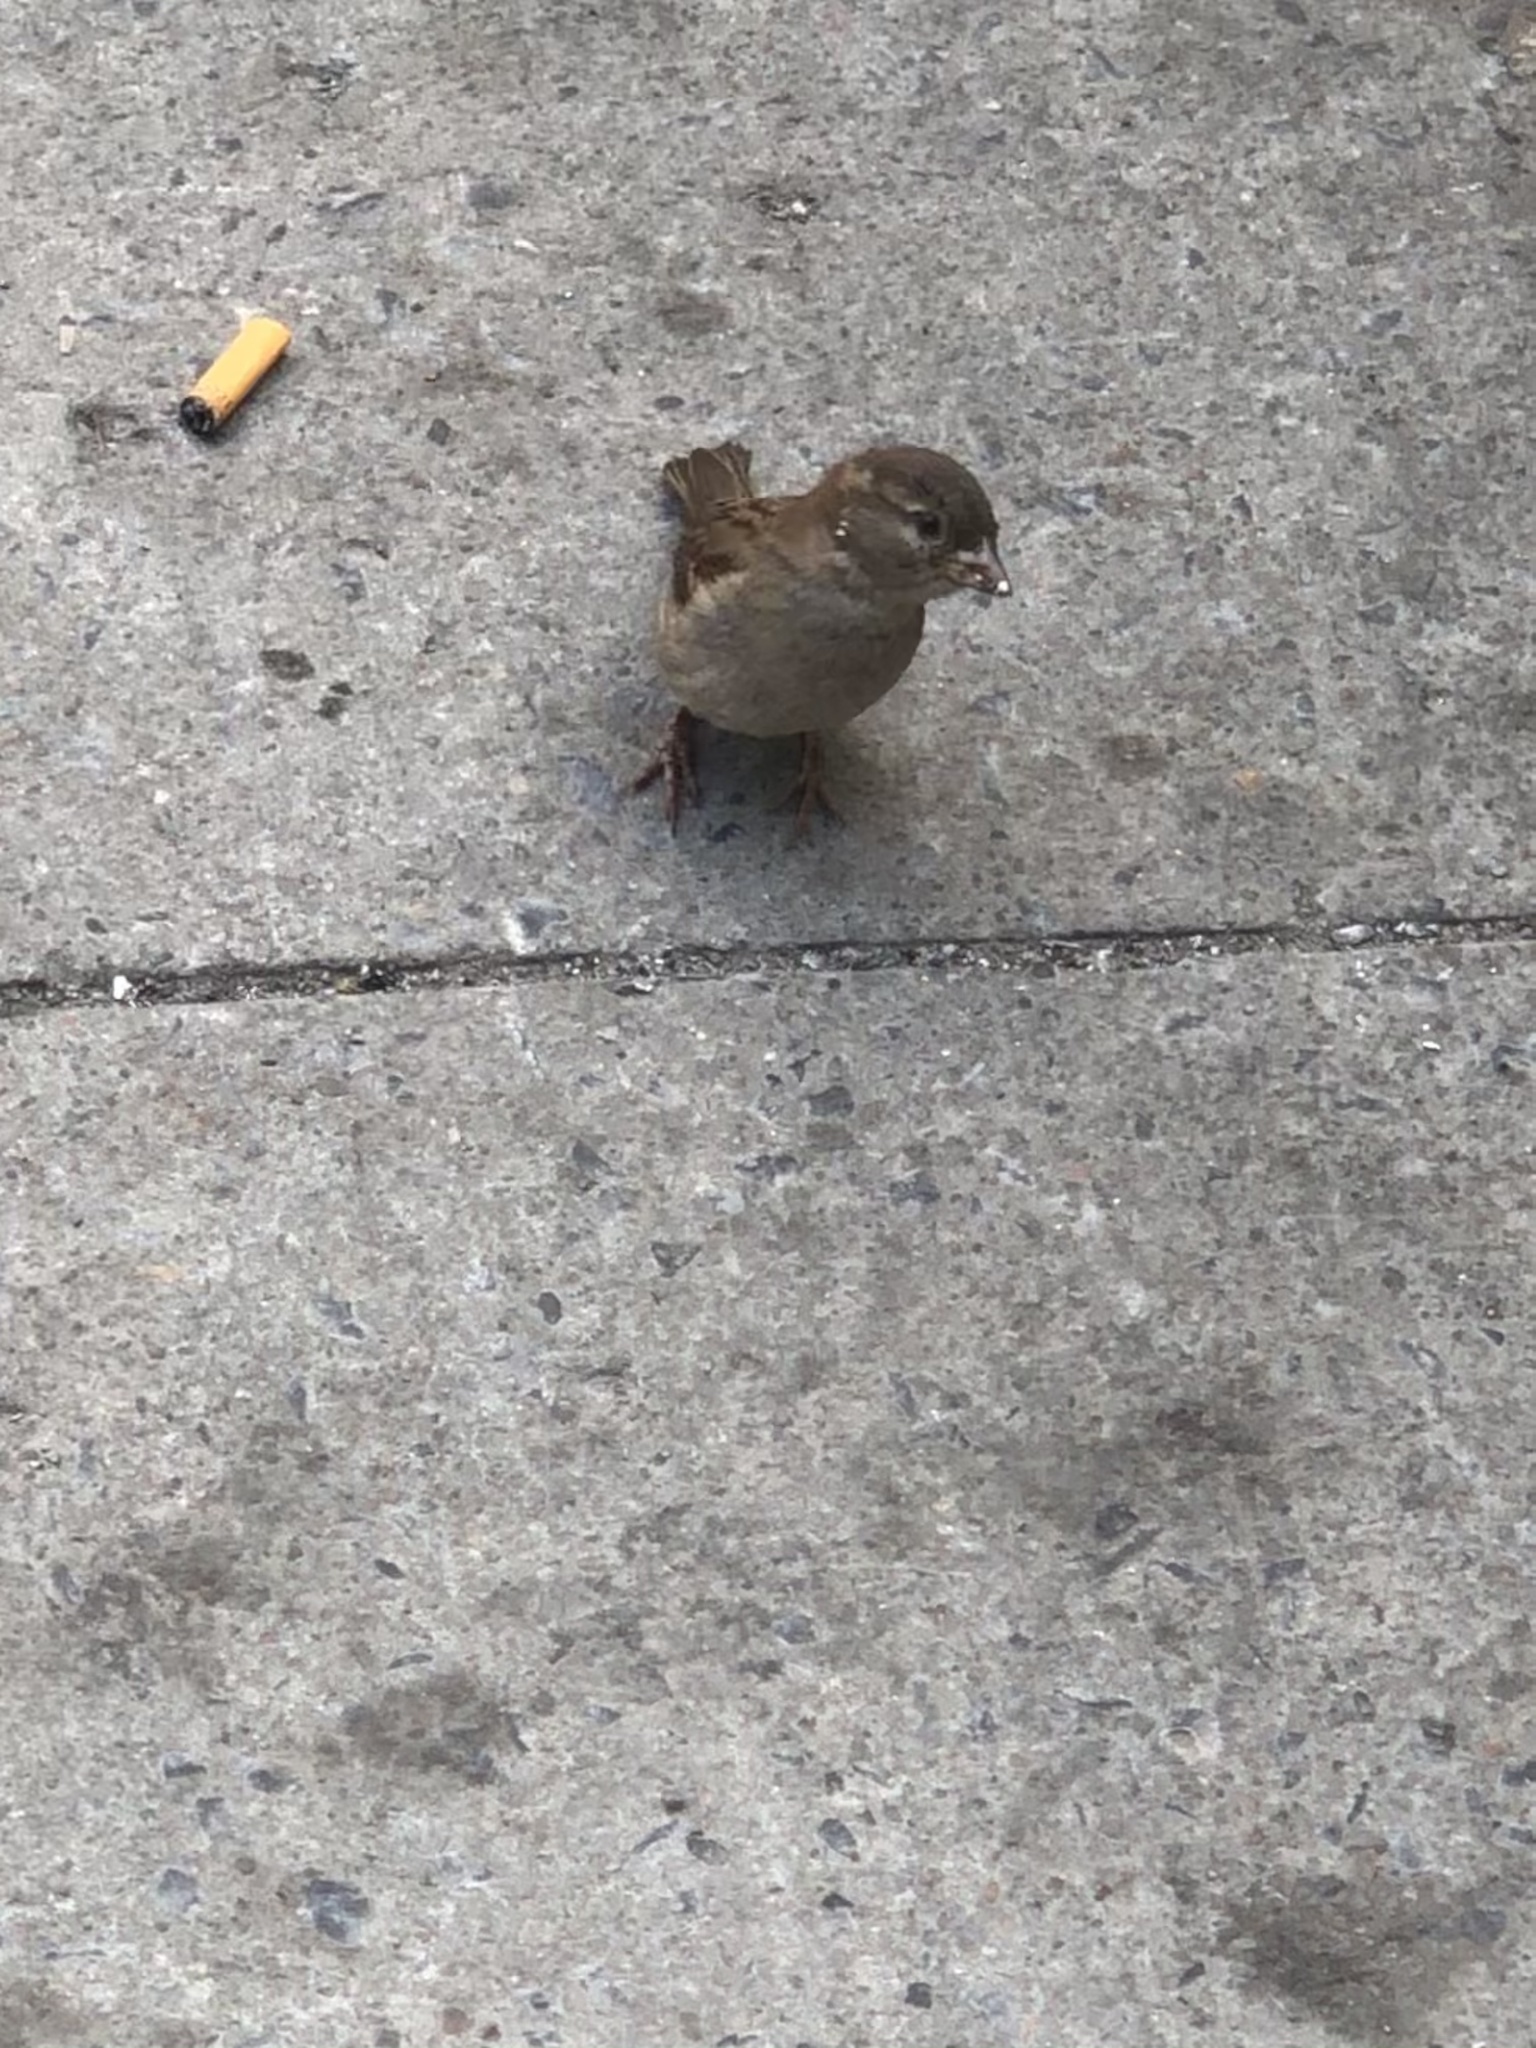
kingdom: Animalia
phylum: Chordata
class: Aves
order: Passeriformes
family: Passeridae
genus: Passer
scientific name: Passer domesticus
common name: House sparrow
